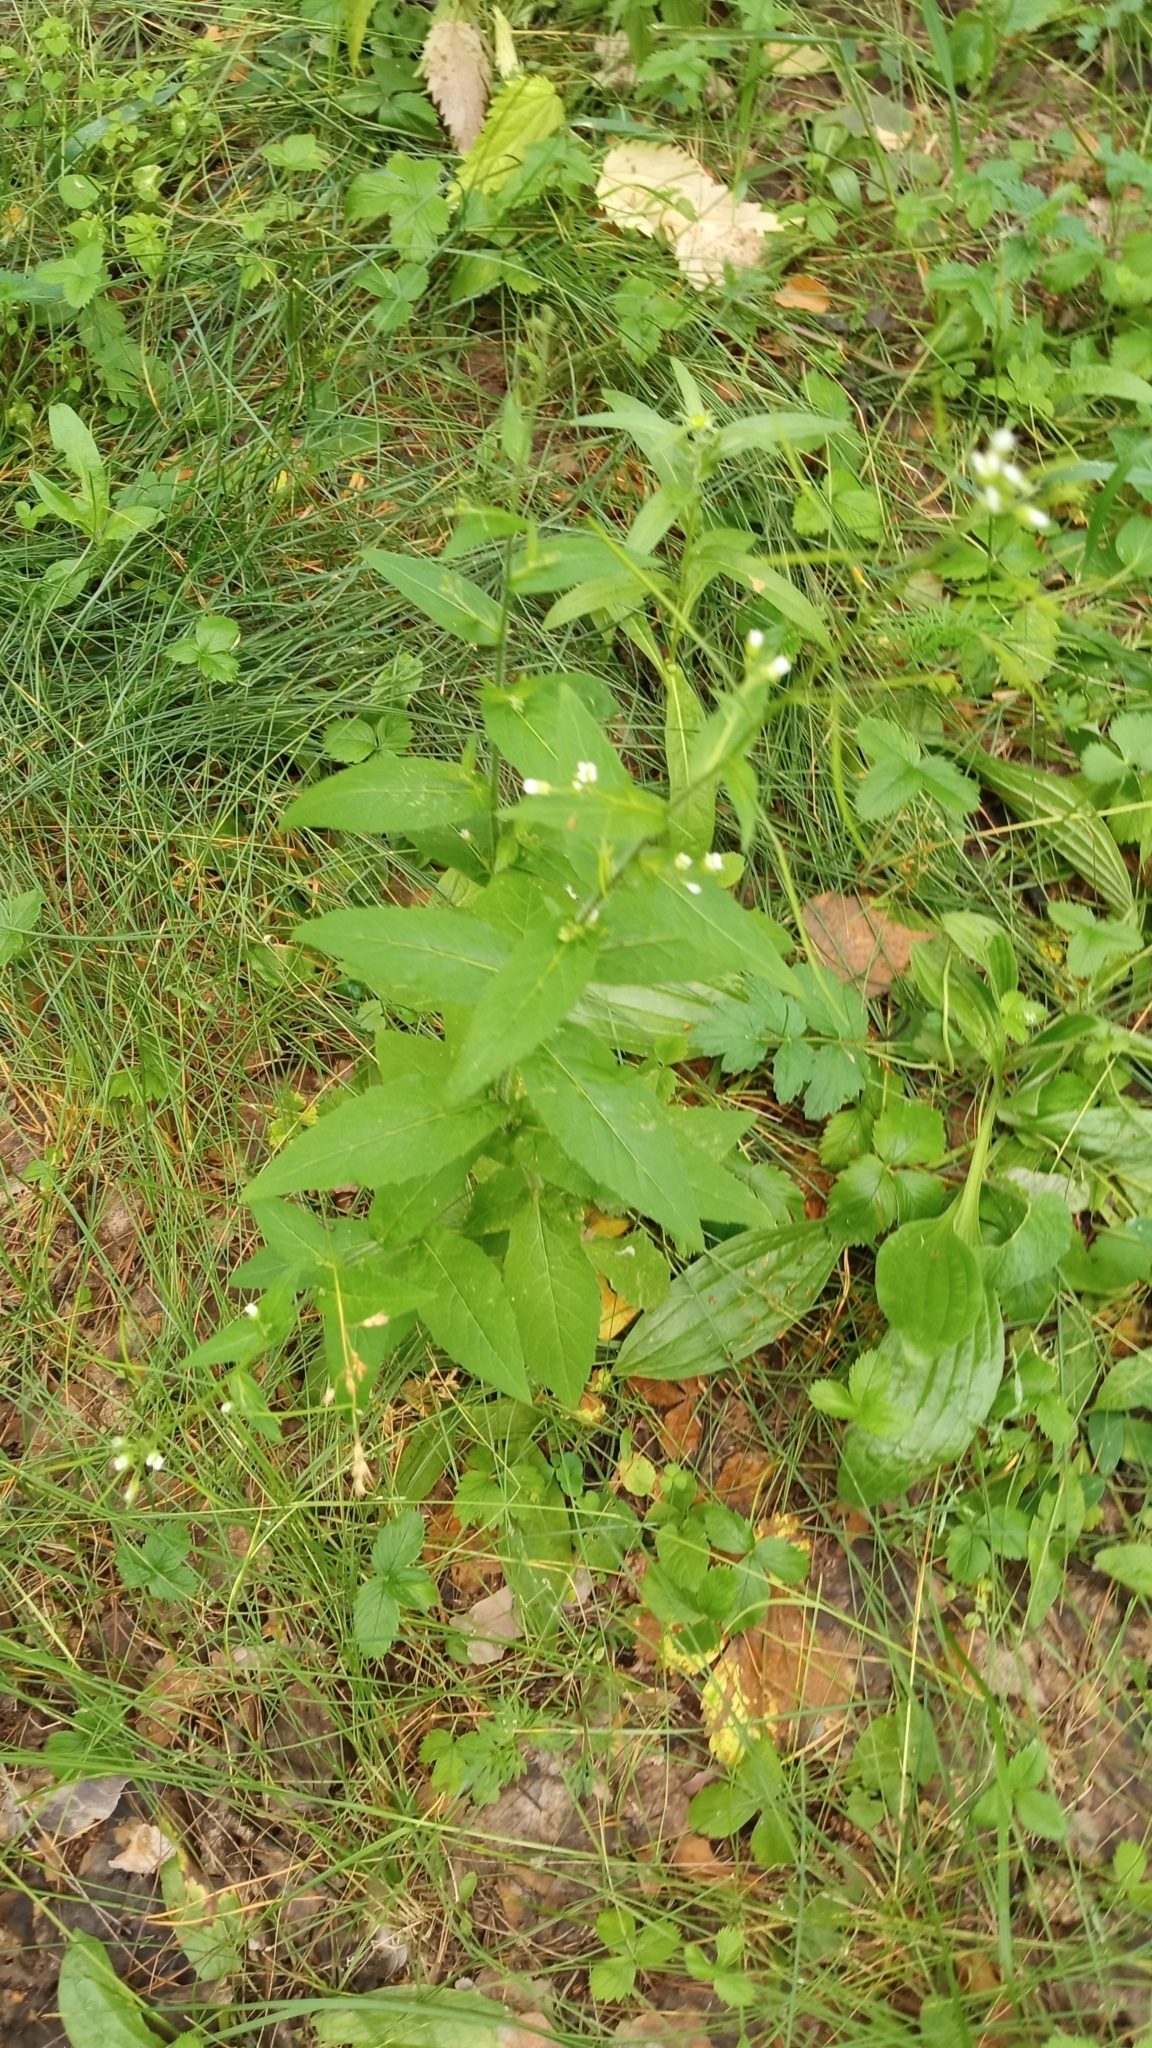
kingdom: Plantae
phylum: Tracheophyta
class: Magnoliopsida
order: Brassicales
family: Brassicaceae
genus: Catolobus
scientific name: Catolobus pendulus
